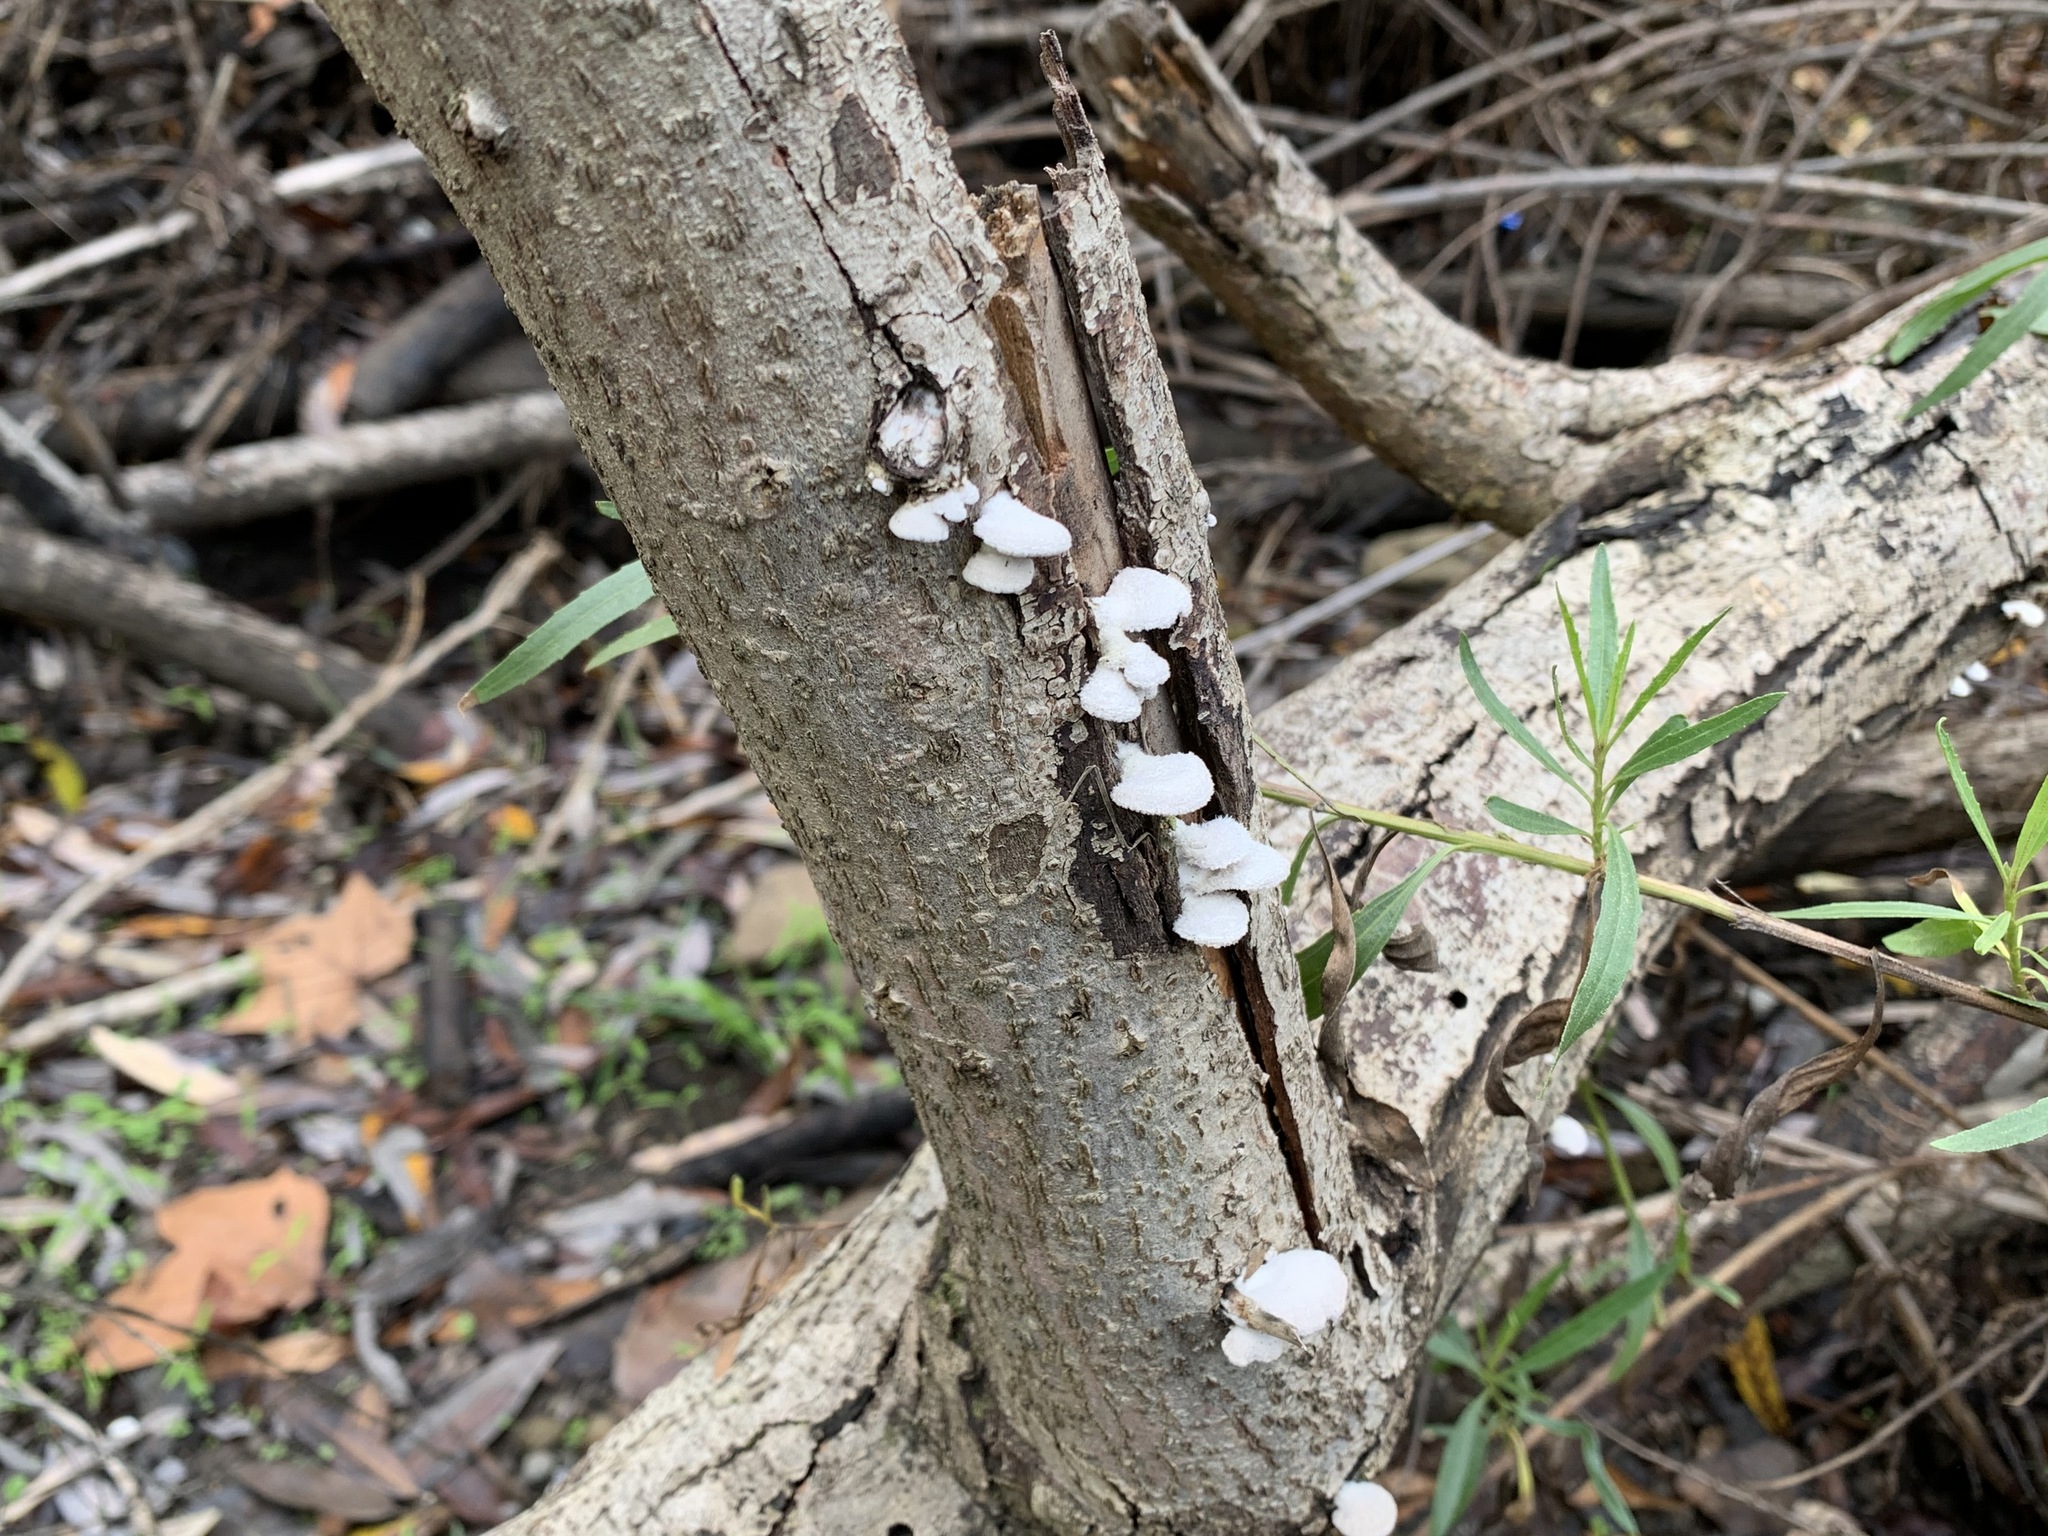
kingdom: Fungi
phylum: Basidiomycota
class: Agaricomycetes
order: Agaricales
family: Schizophyllaceae
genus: Schizophyllum
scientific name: Schizophyllum commune
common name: Common porecrust
